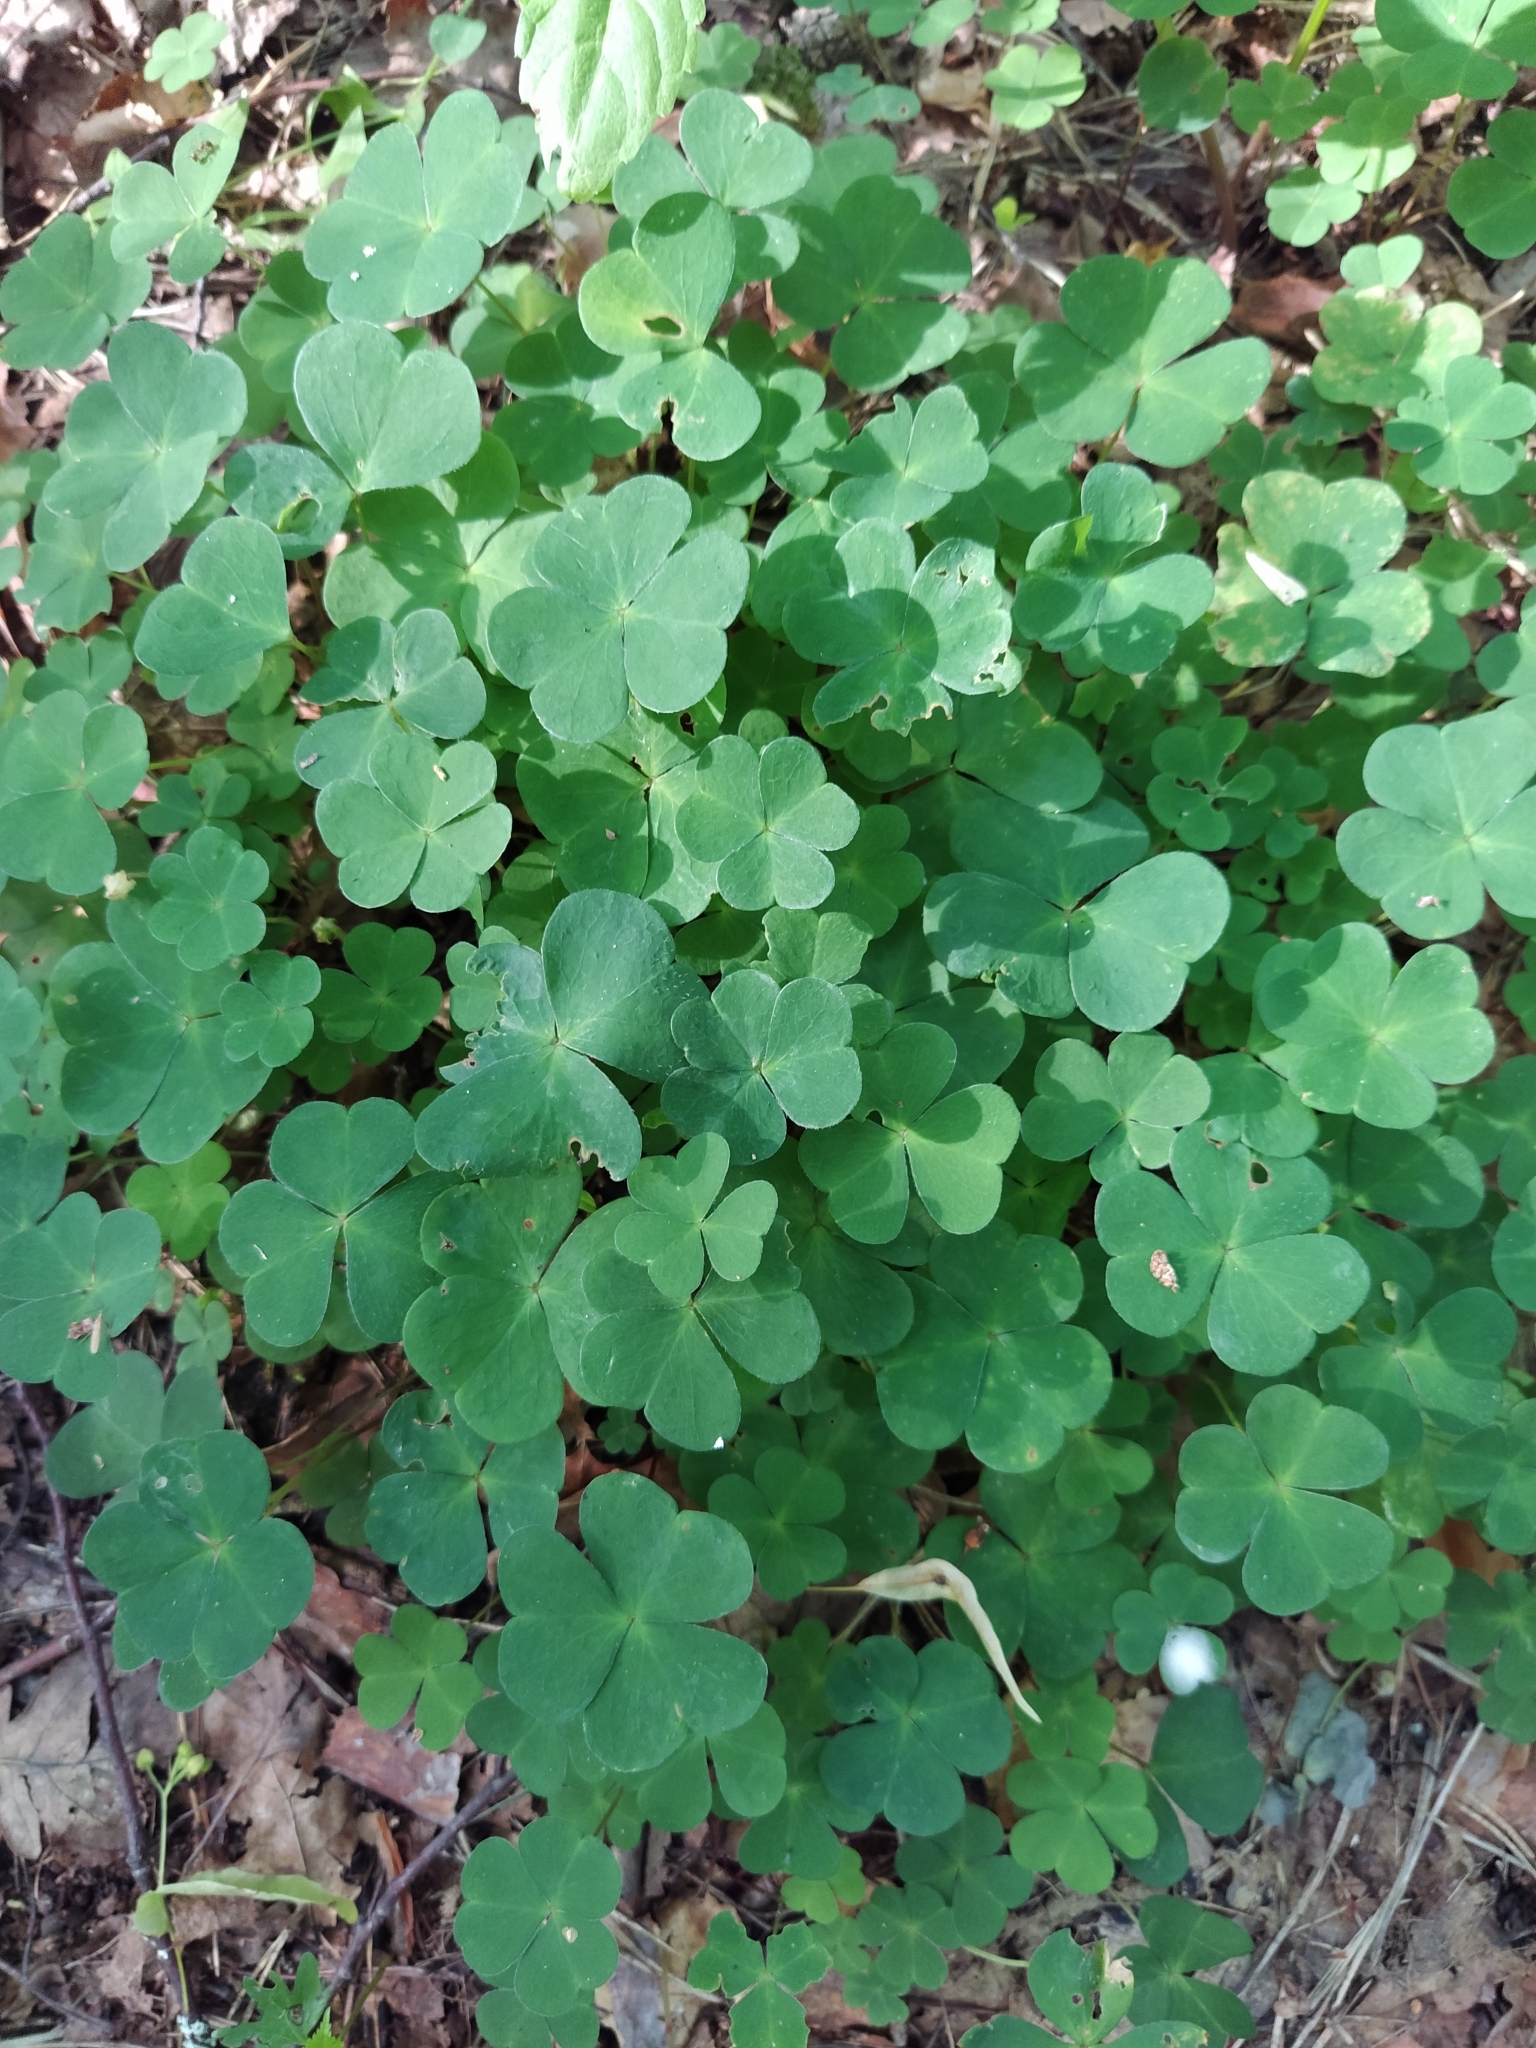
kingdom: Plantae
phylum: Tracheophyta
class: Magnoliopsida
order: Oxalidales
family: Oxalidaceae
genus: Oxalis
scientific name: Oxalis acetosella
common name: Wood-sorrel
